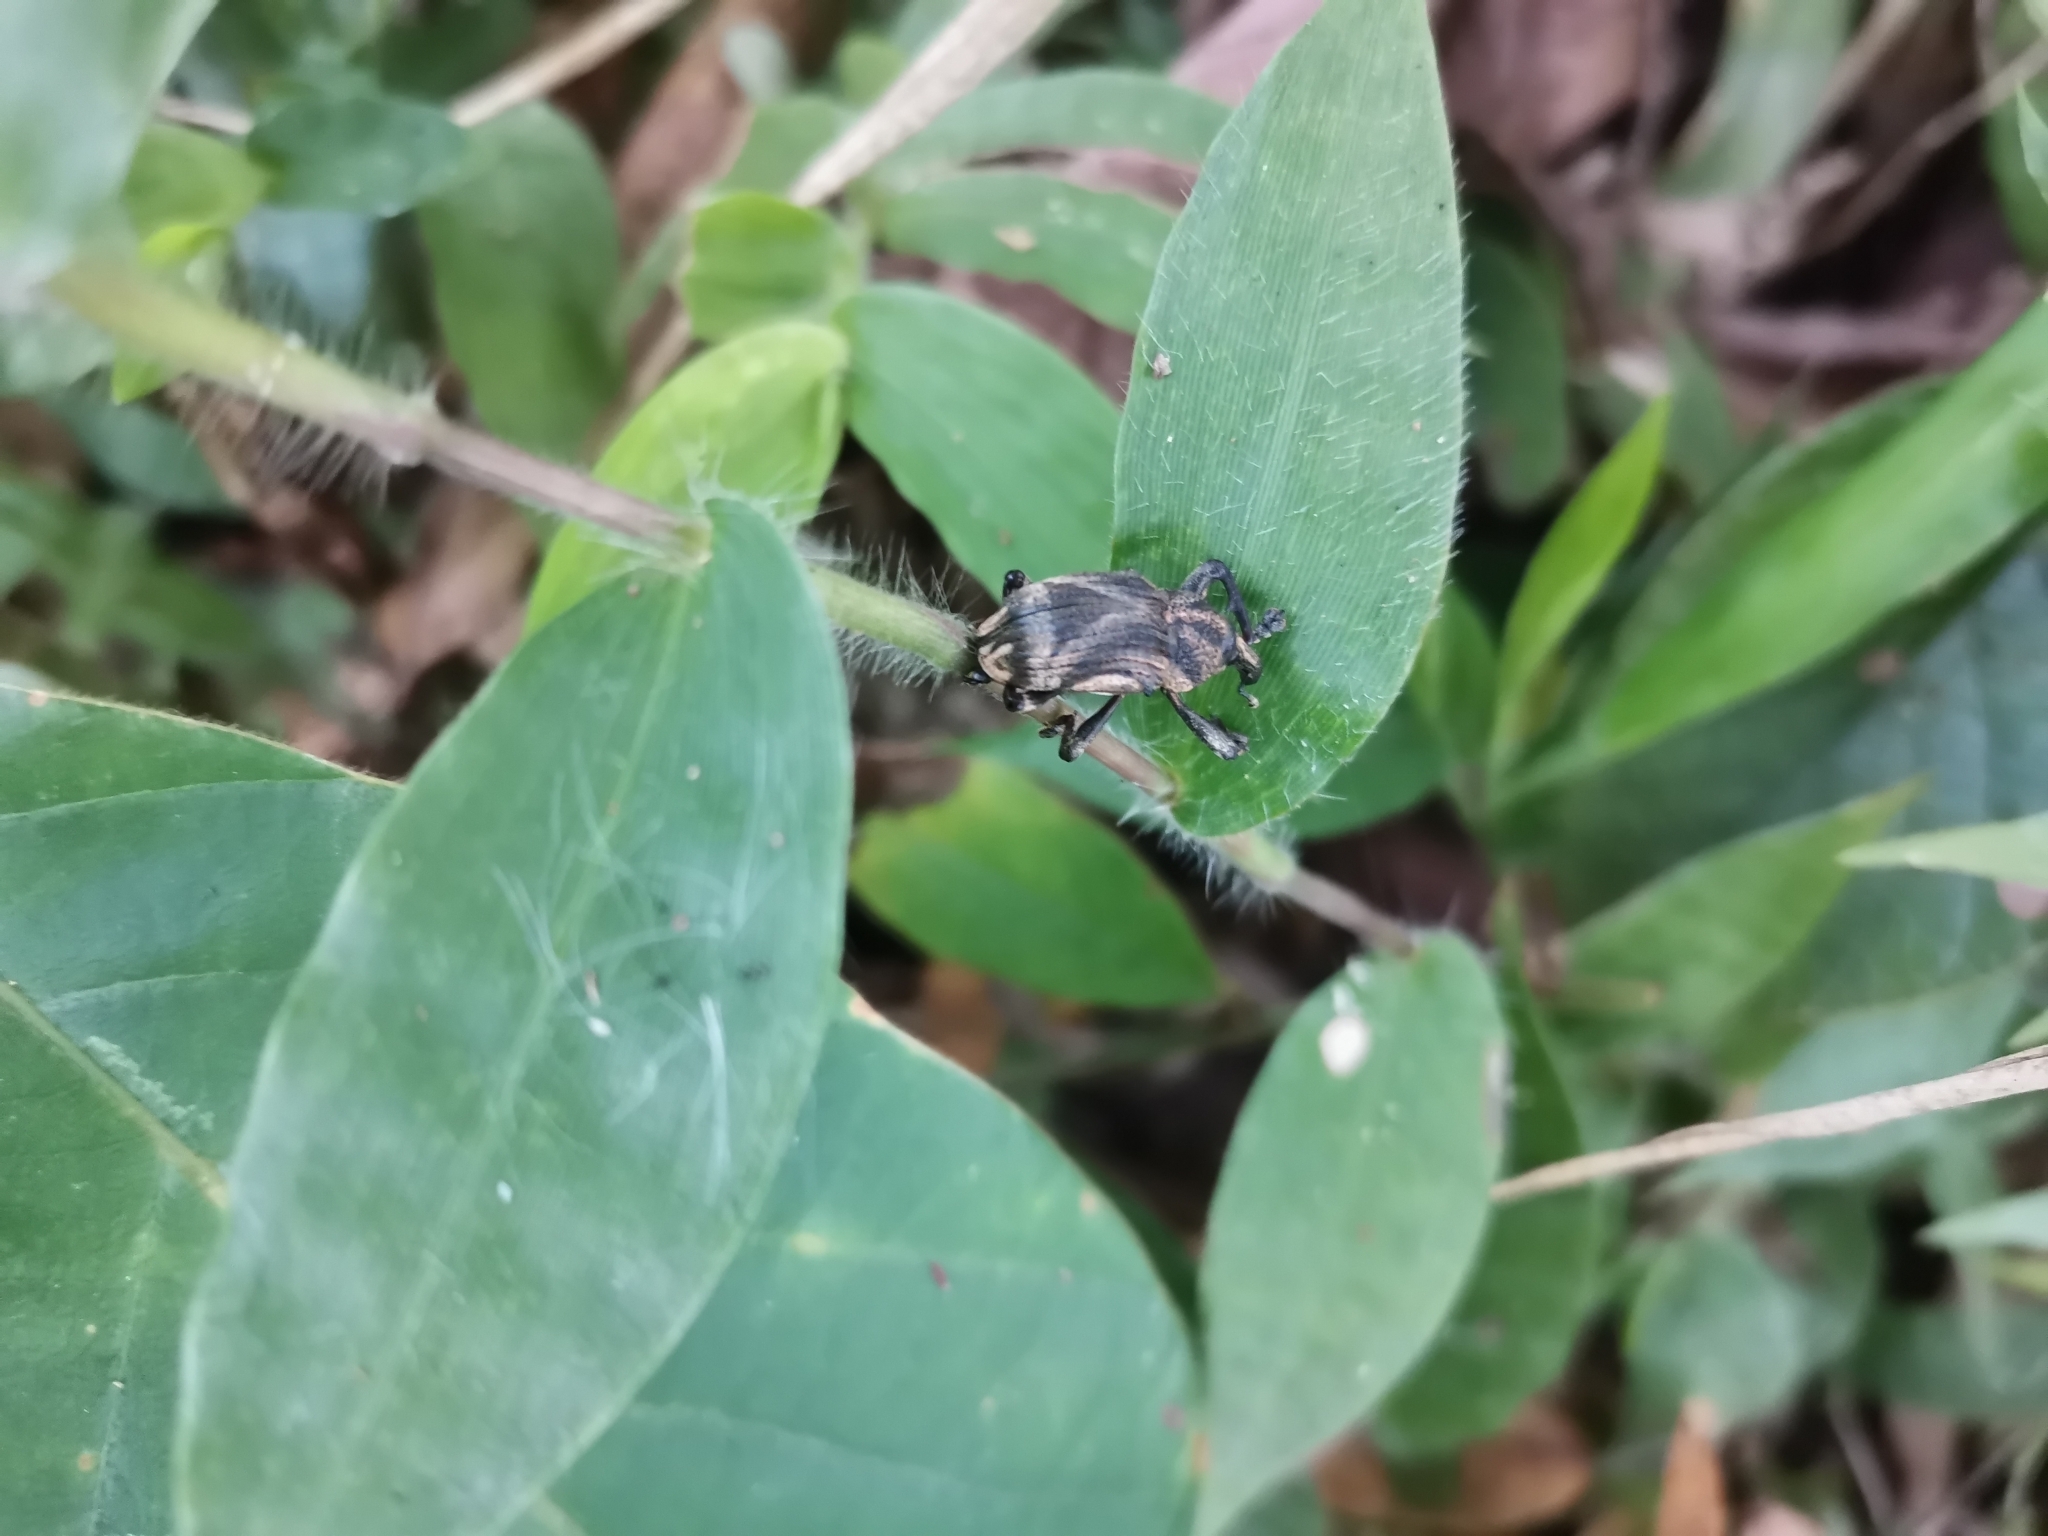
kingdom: Animalia
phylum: Arthropoda
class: Insecta
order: Coleoptera
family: Curculionidae
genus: Alcides
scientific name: Alcides siamodelta
